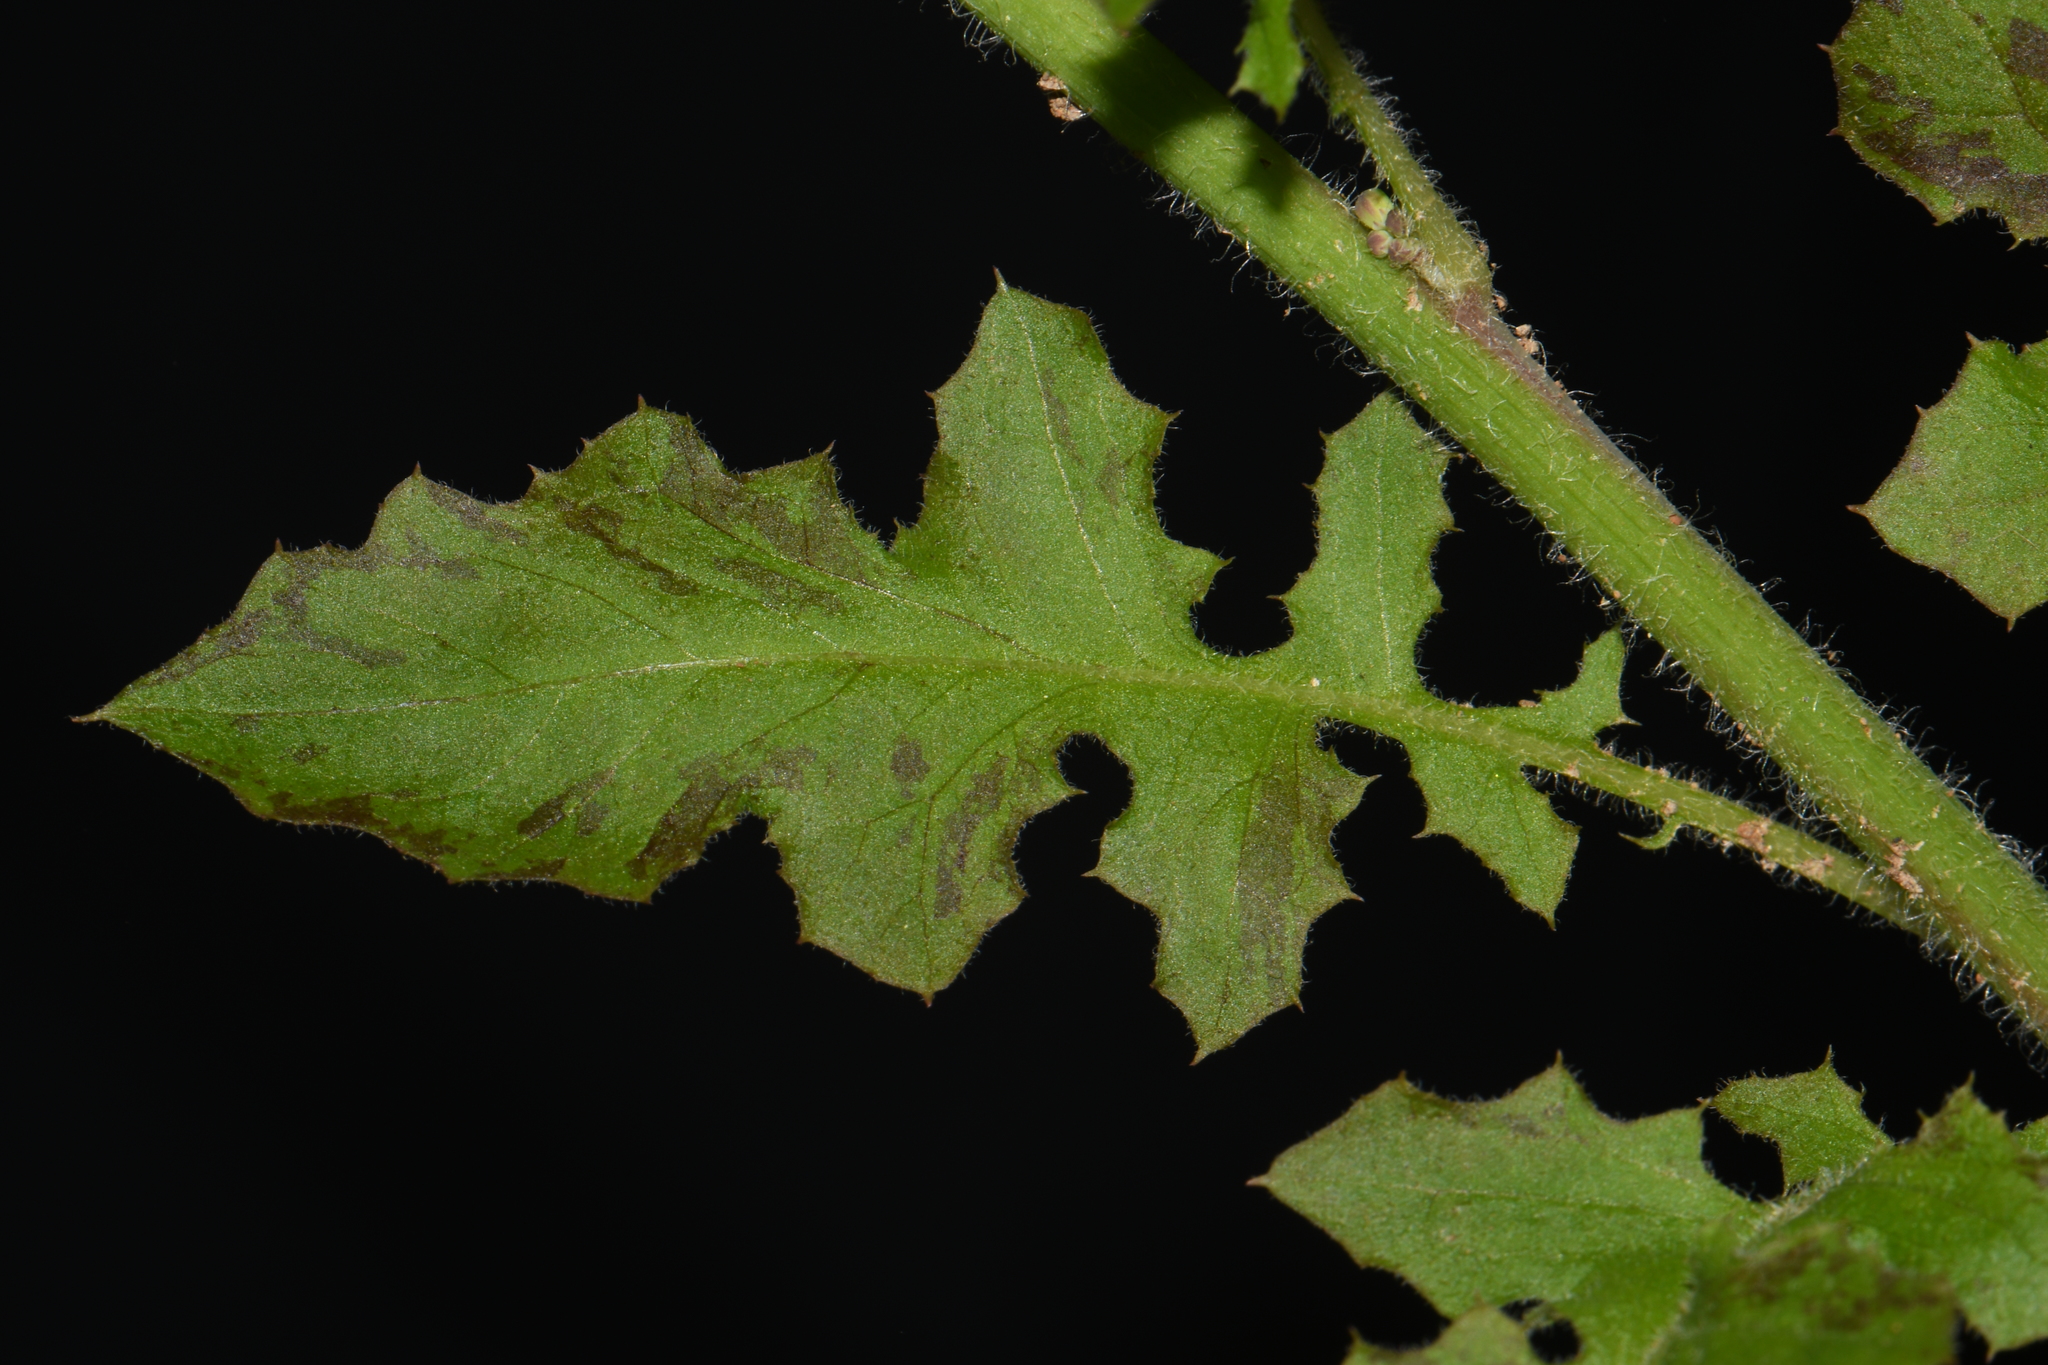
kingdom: Plantae
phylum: Tracheophyta
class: Magnoliopsida
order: Asterales
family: Asteraceae
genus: Youngia
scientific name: Youngia japonica
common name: Oriental false hawksbeard
